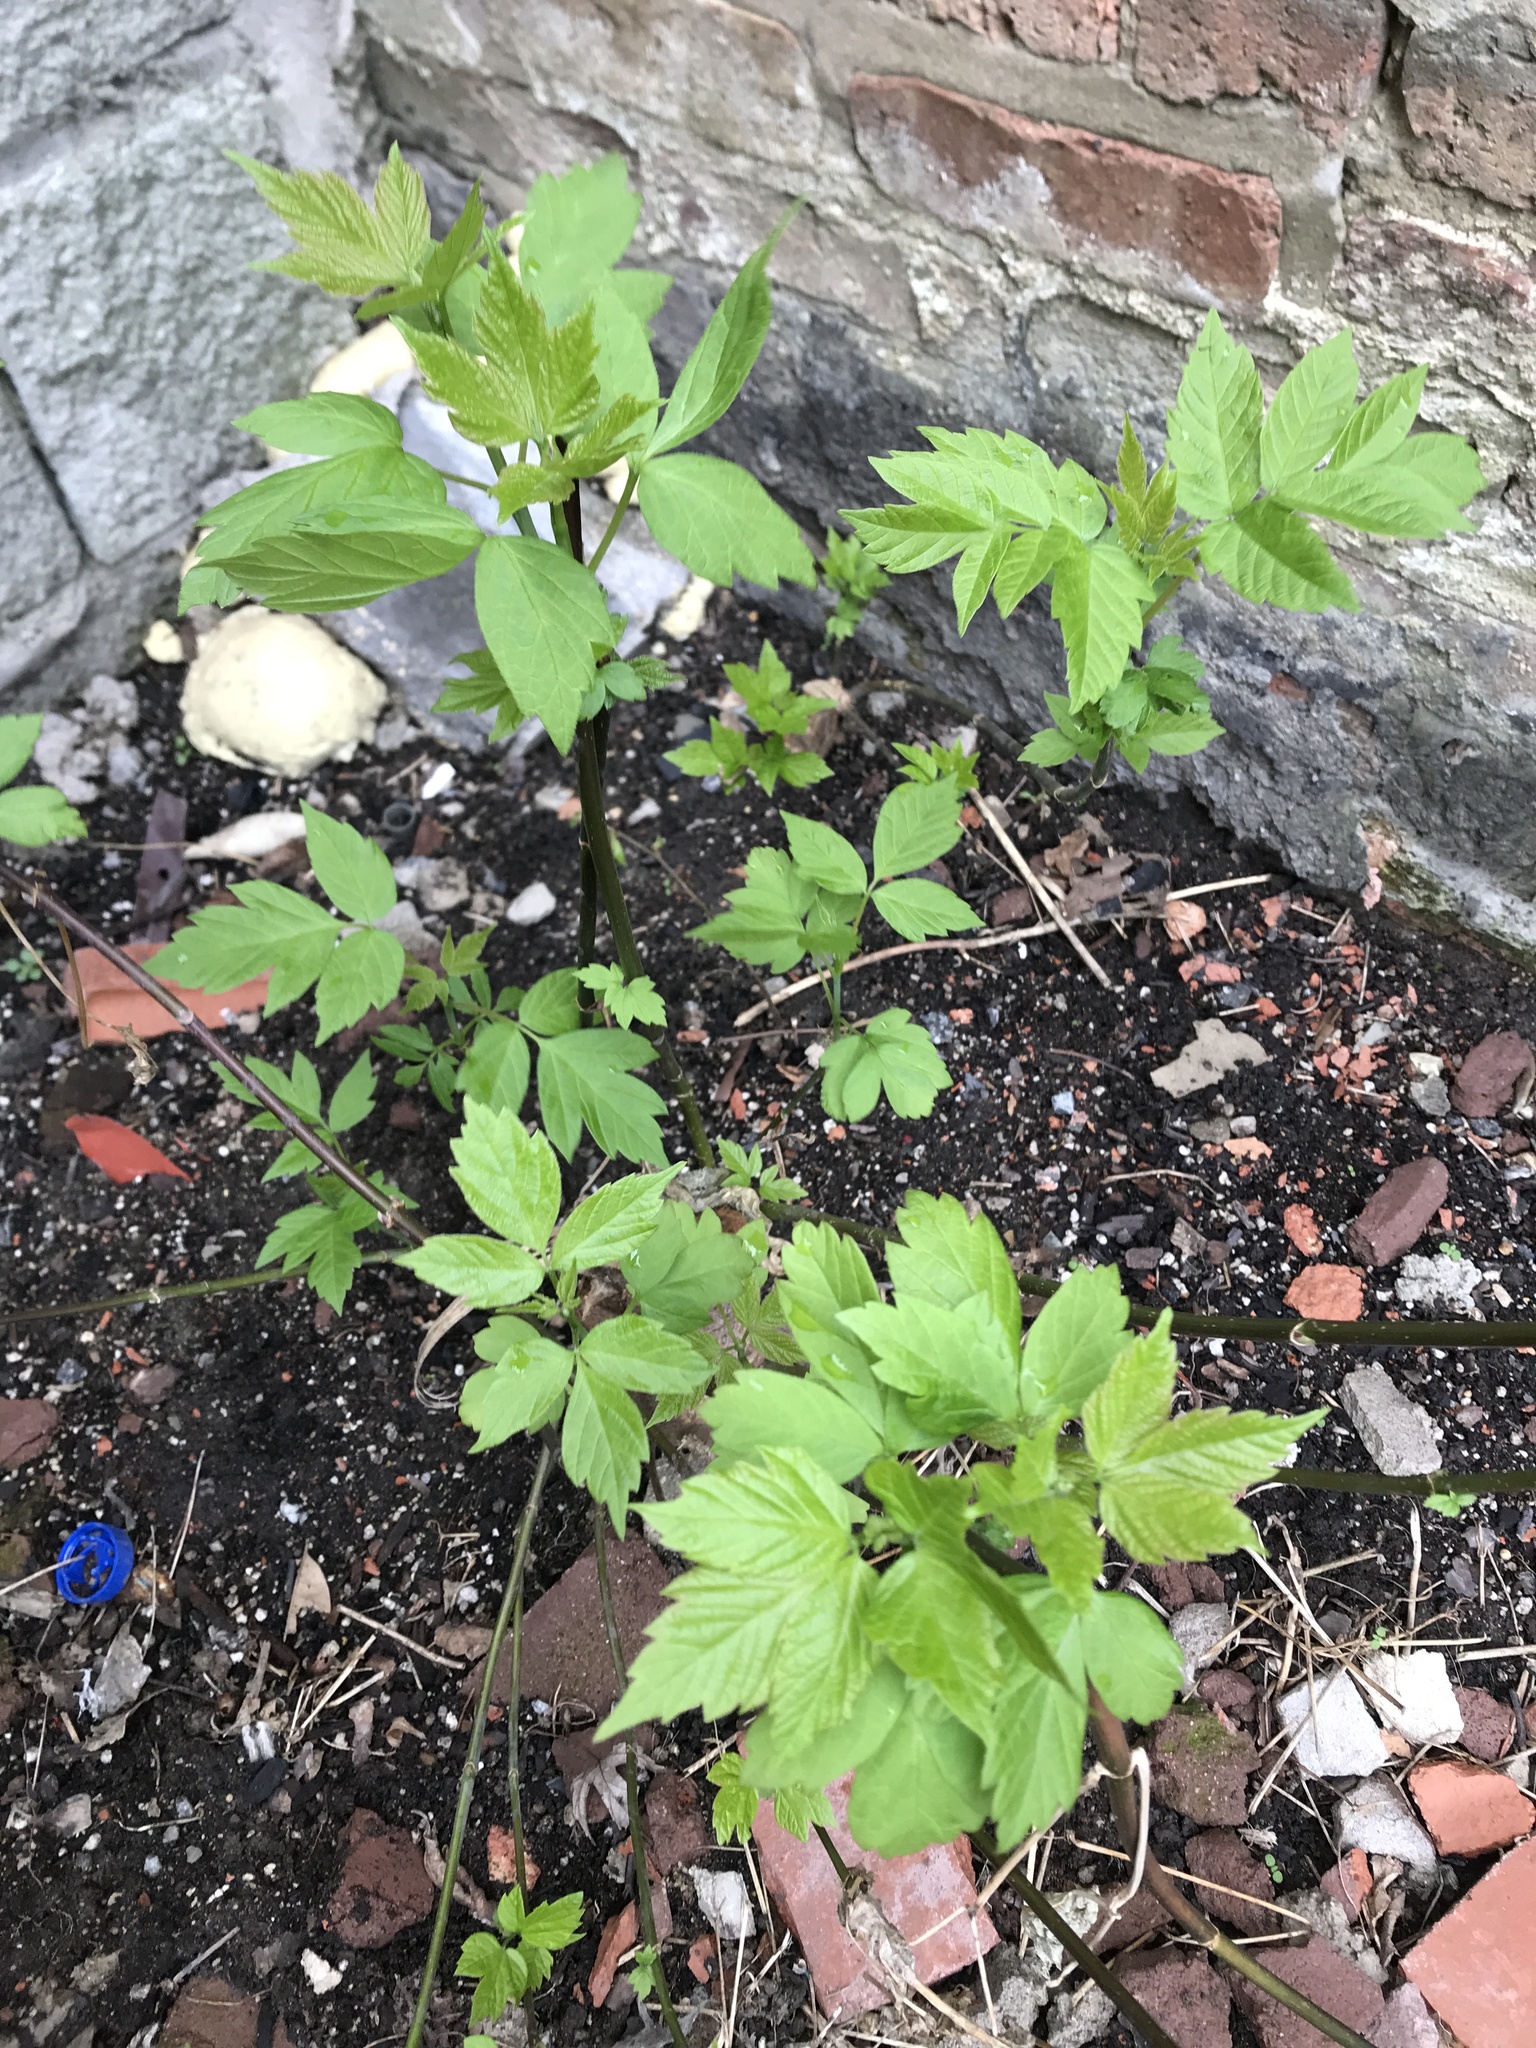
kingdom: Plantae
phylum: Tracheophyta
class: Magnoliopsida
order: Sapindales
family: Sapindaceae
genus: Acer
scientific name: Acer negundo
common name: Ashleaf maple
